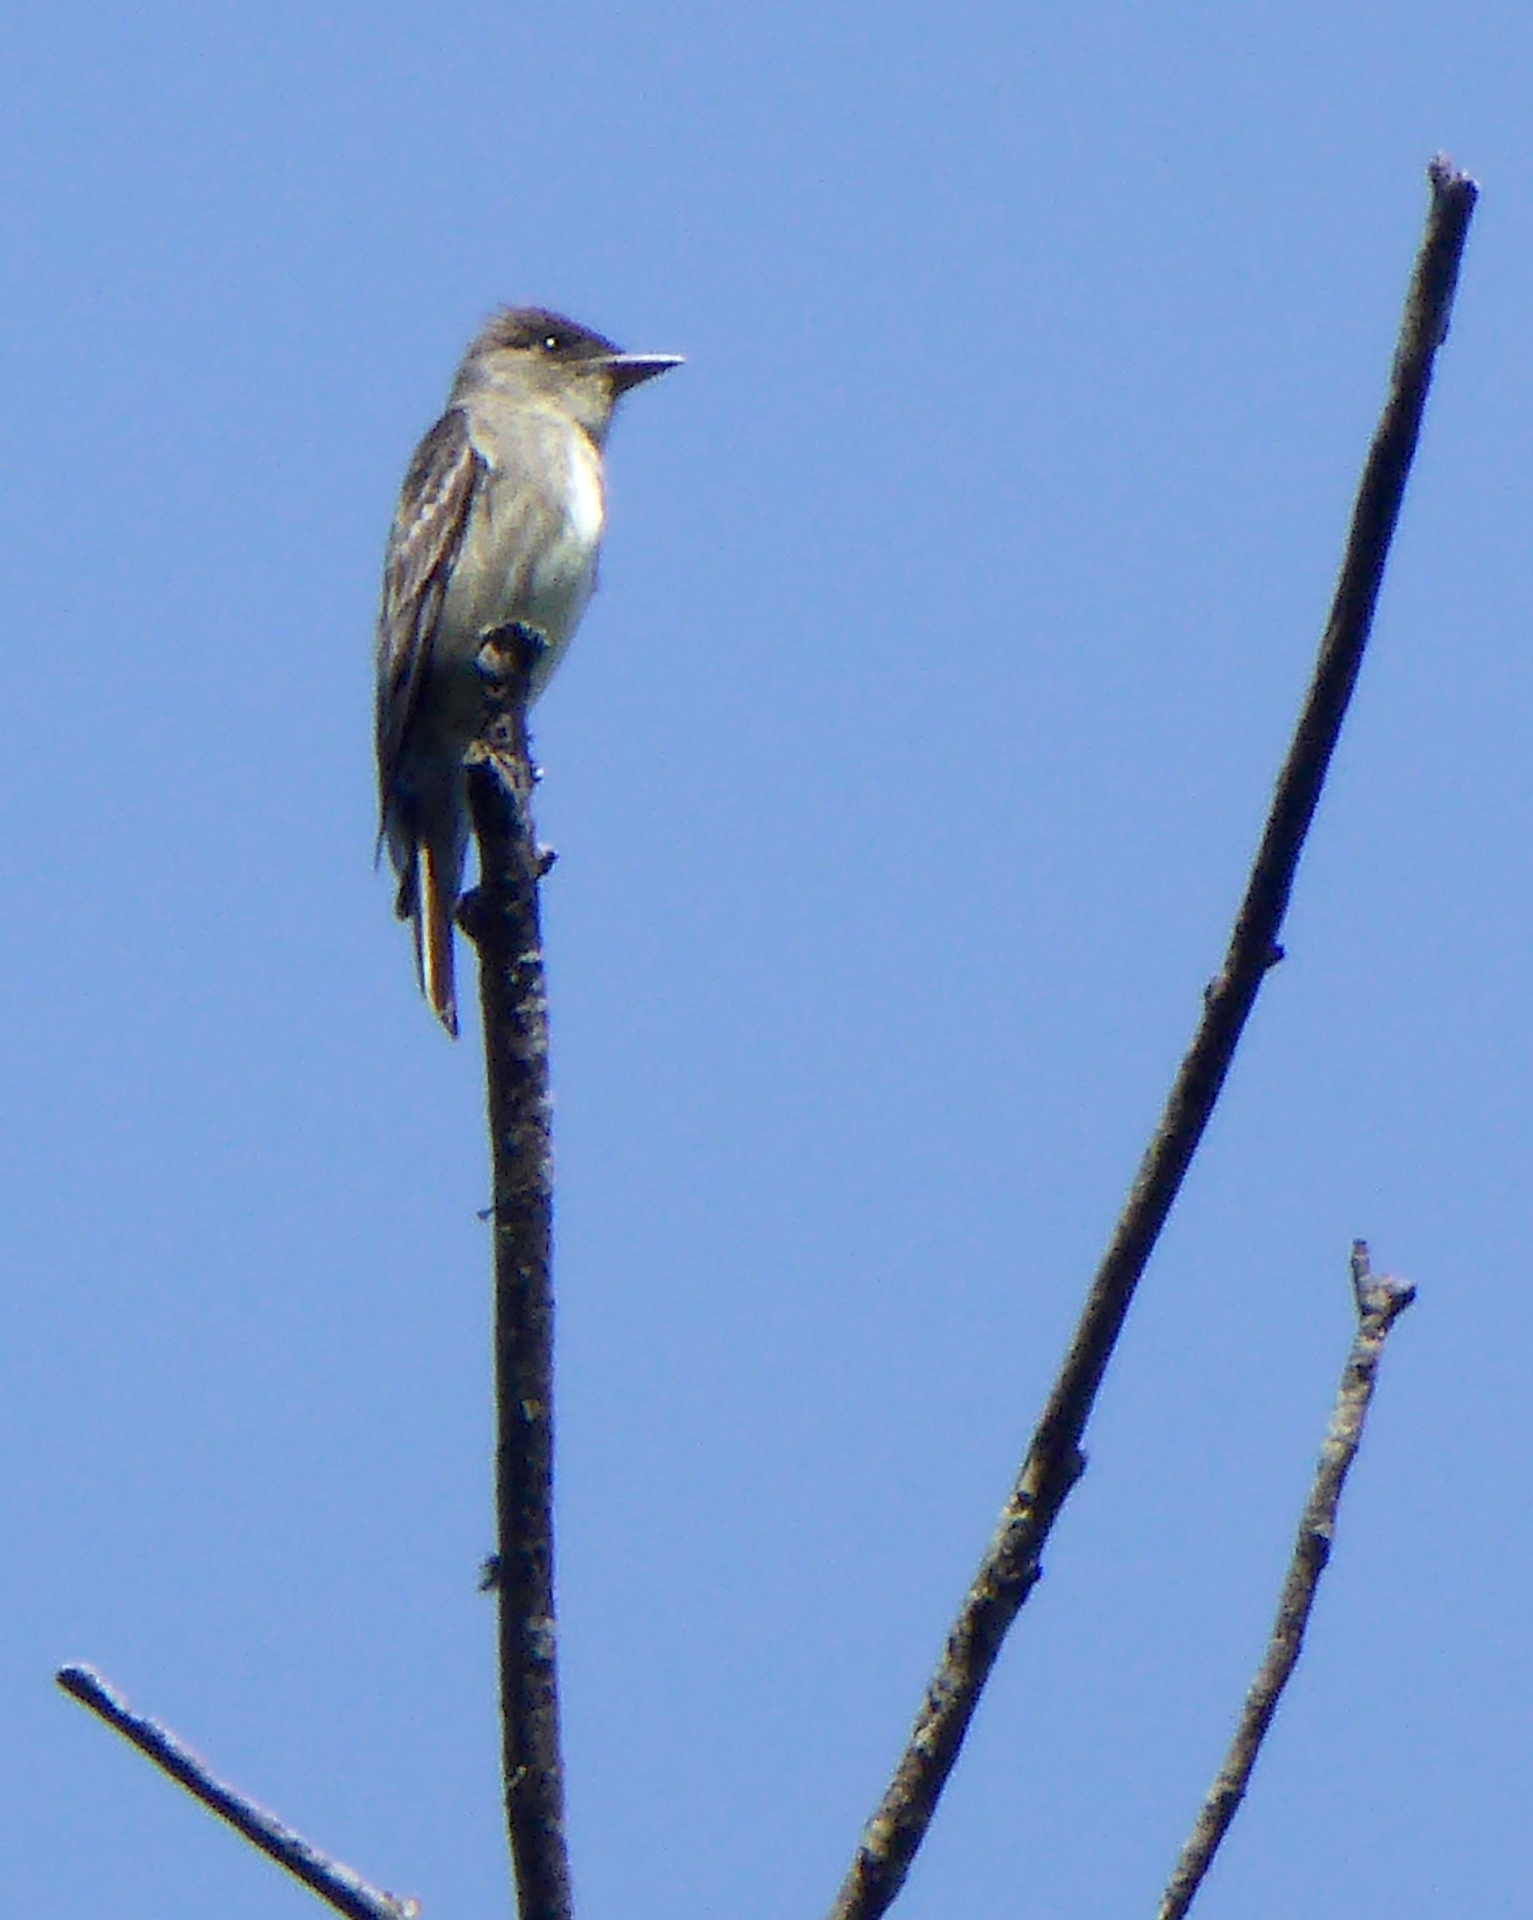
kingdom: Animalia
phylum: Chordata
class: Aves
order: Passeriformes
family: Tyrannidae
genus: Contopus
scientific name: Contopus cooperi
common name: Olive-sided flycatcher
